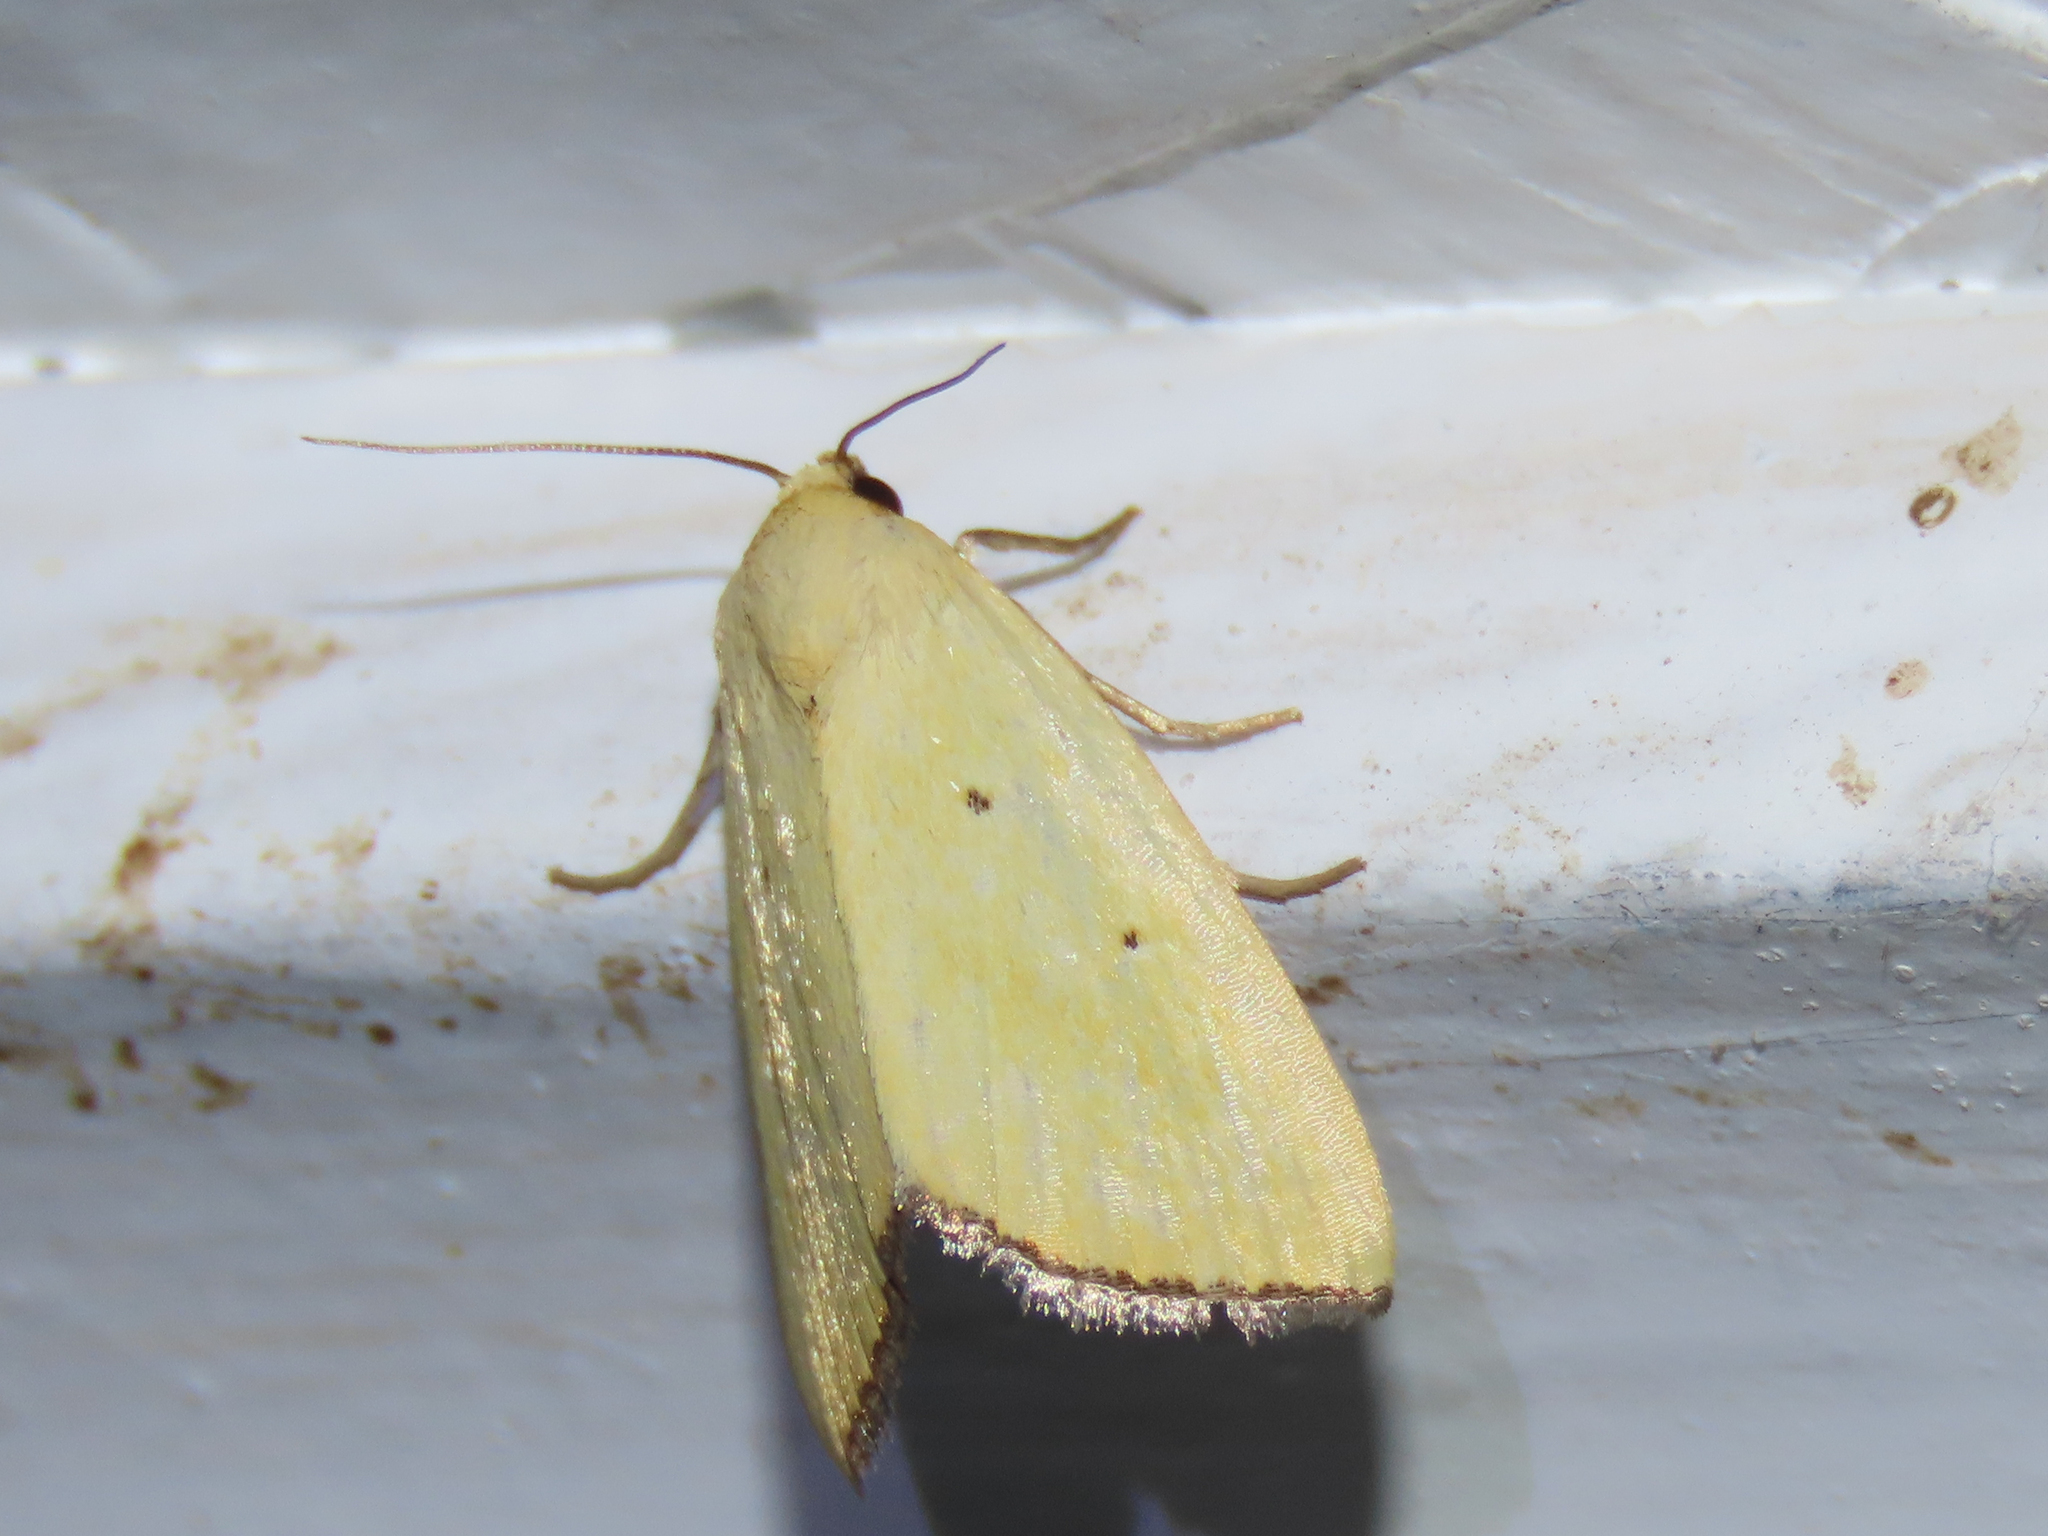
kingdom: Animalia
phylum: Arthropoda
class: Insecta
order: Lepidoptera
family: Noctuidae
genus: Marimatha
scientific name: Marimatha nigrofimbria
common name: Black-bordered lemon moth
